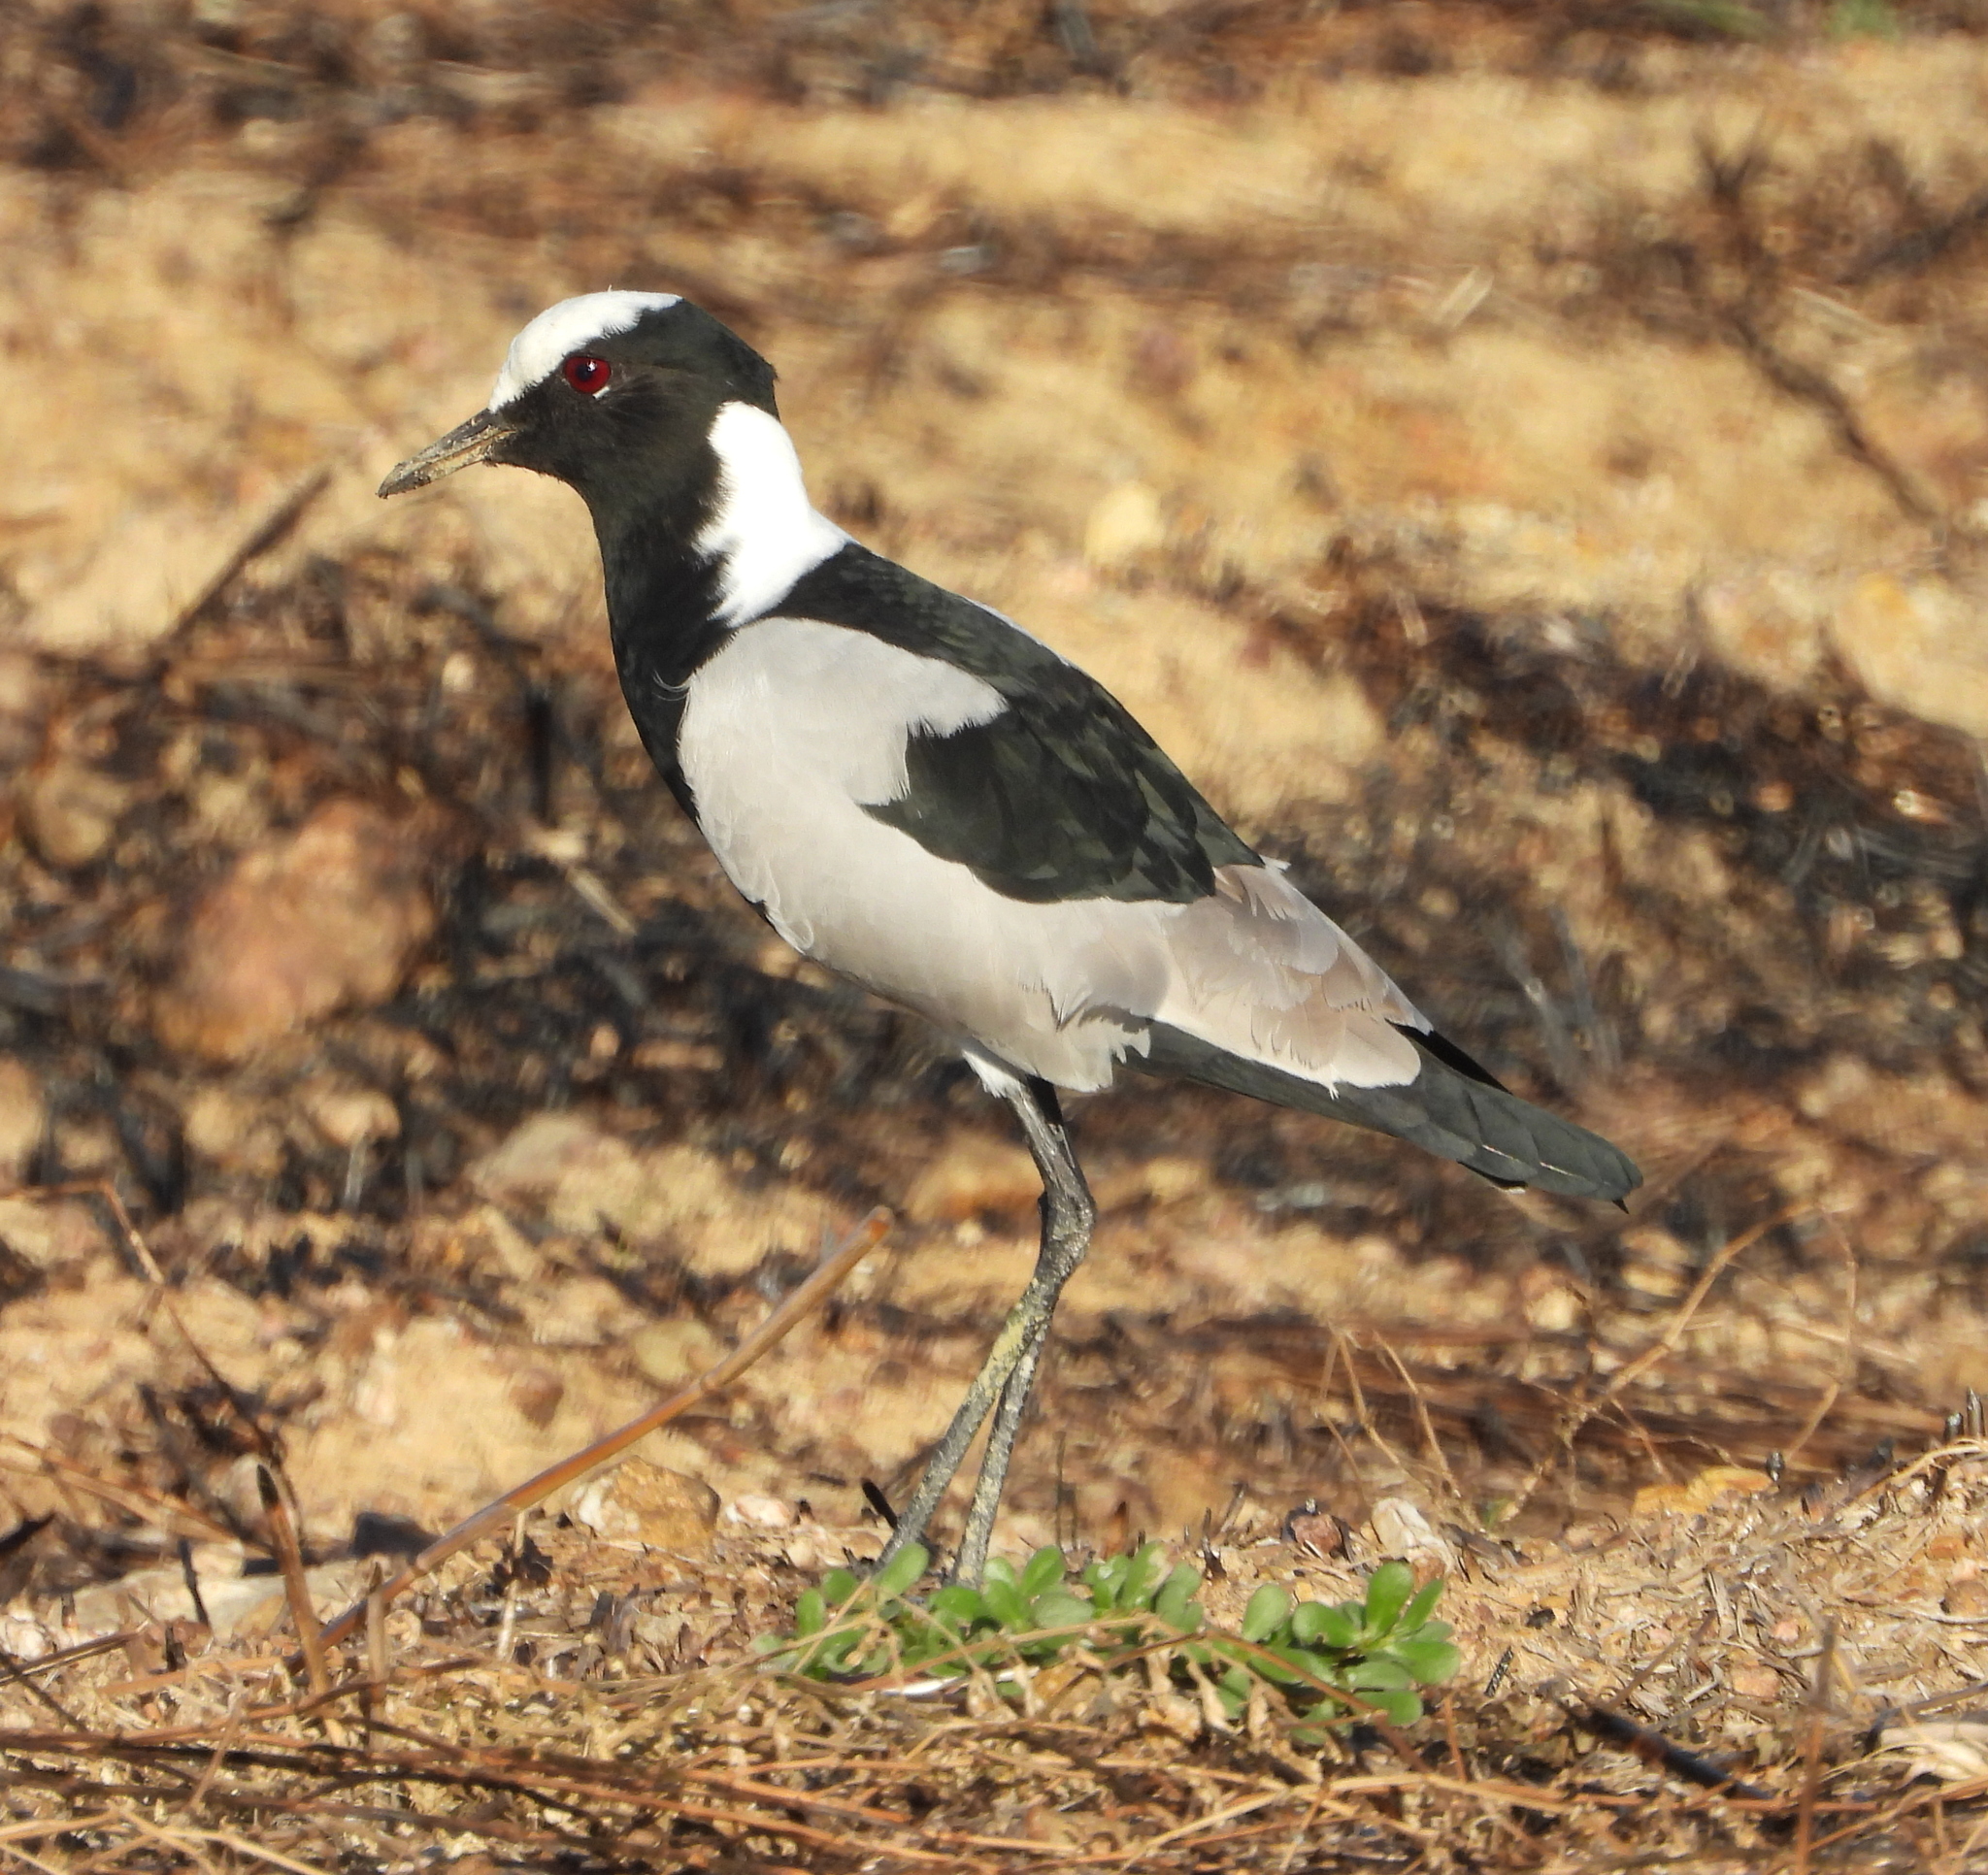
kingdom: Animalia
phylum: Chordata
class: Aves
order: Charadriiformes
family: Charadriidae
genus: Vanellus
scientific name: Vanellus armatus
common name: Blacksmith lapwing
